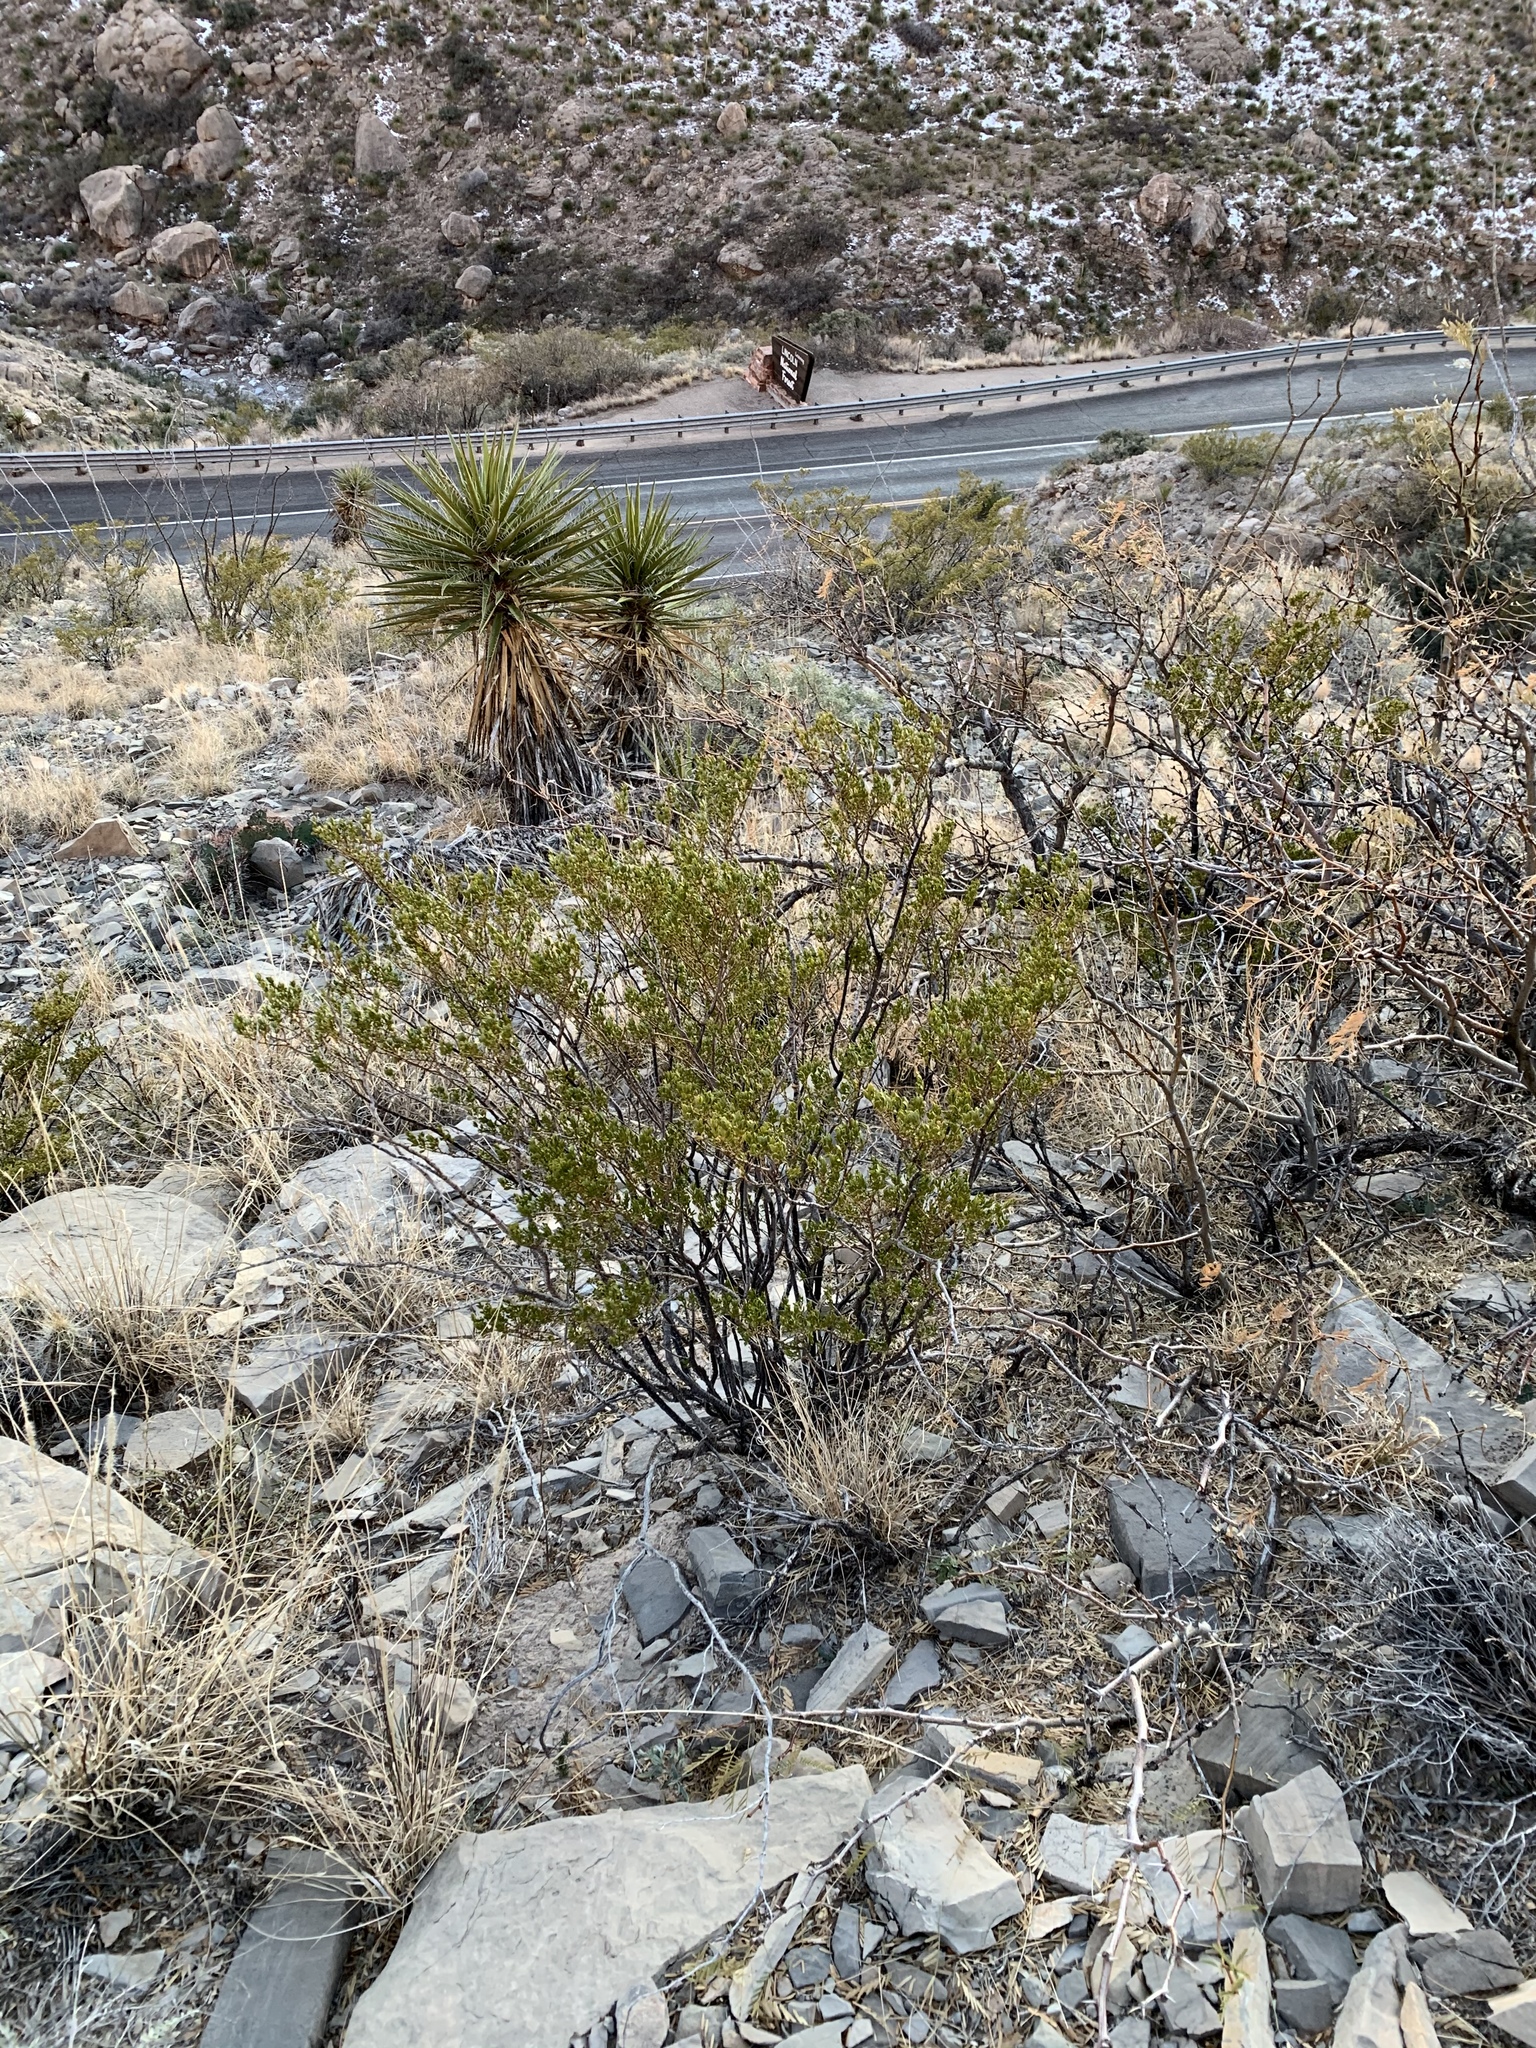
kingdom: Plantae
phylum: Tracheophyta
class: Magnoliopsida
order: Zygophyllales
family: Zygophyllaceae
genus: Larrea
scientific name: Larrea tridentata
